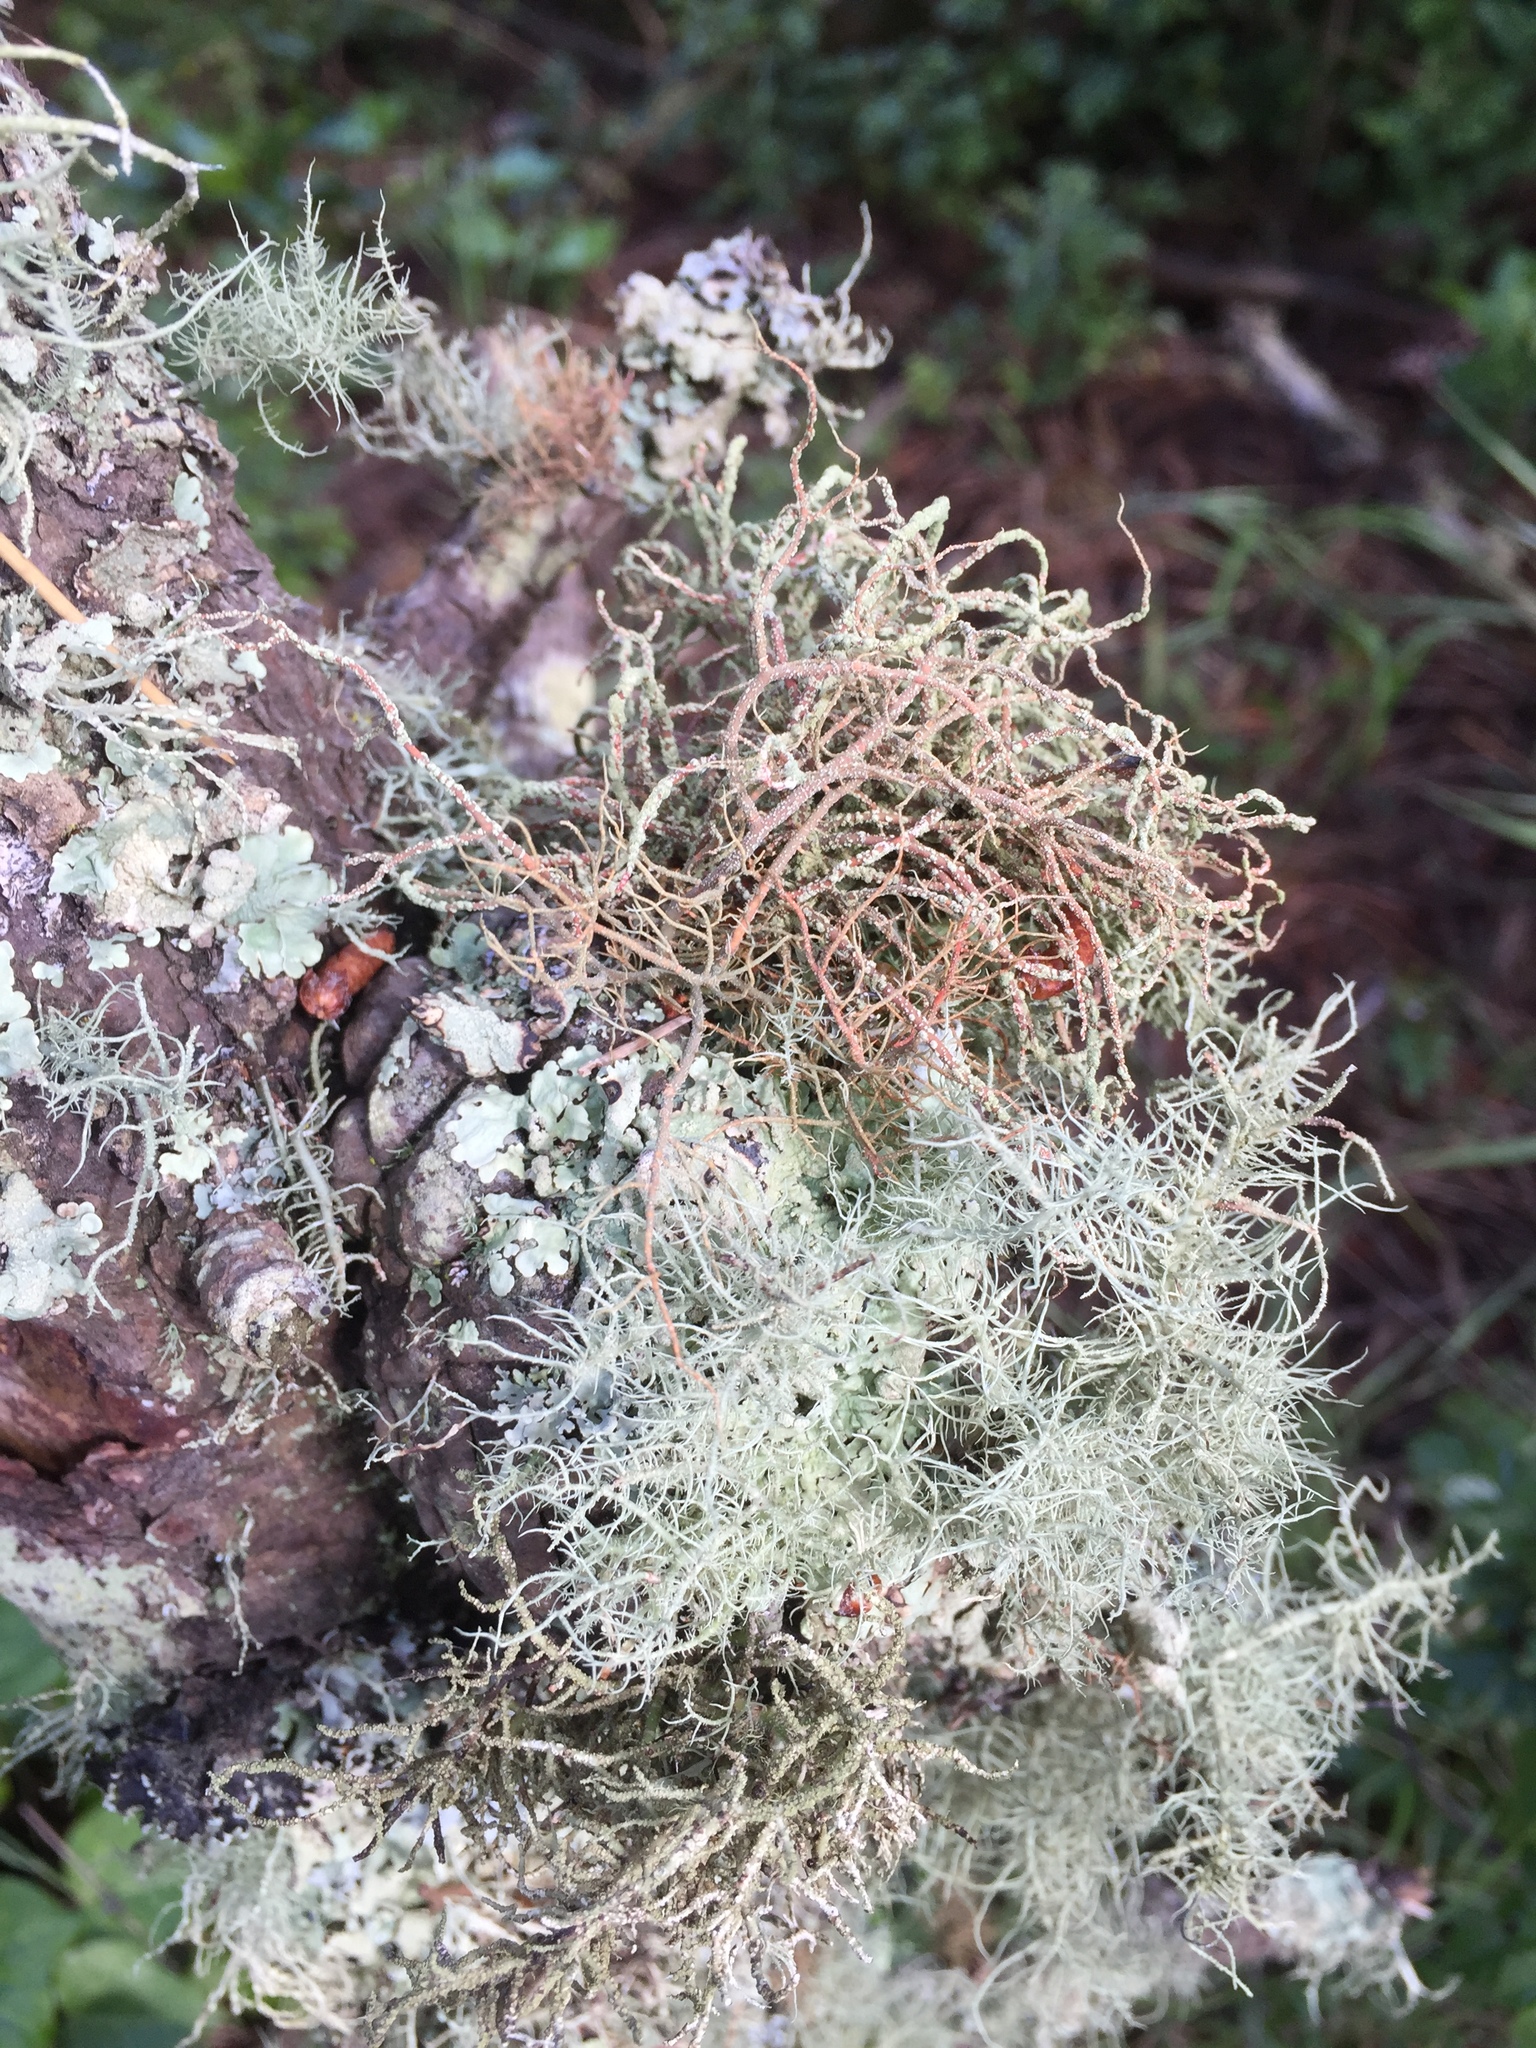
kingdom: Fungi
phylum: Ascomycota
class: Lecanoromycetes
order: Lecanorales
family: Parmeliaceae
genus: Usnea
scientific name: Usnea rubicunda
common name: Red beard lichen
